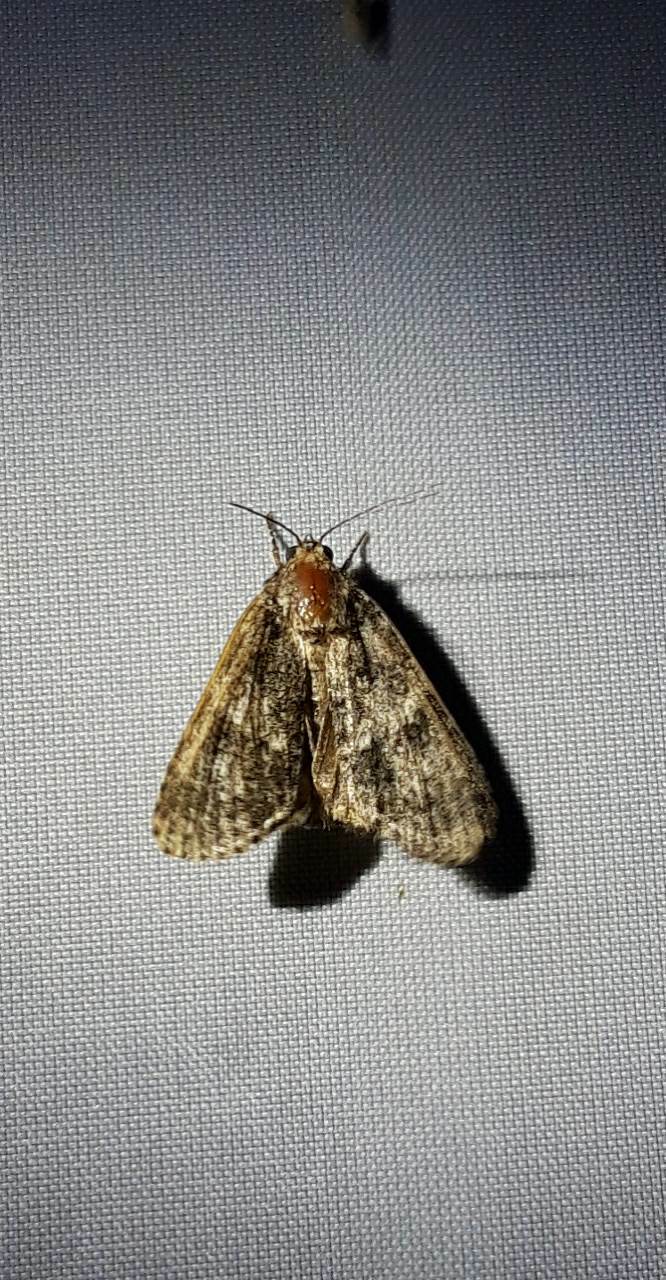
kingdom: Animalia
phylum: Arthropoda
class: Insecta
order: Lepidoptera
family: Noctuidae
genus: Acronicta
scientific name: Acronicta rumicis
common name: Knot grass
